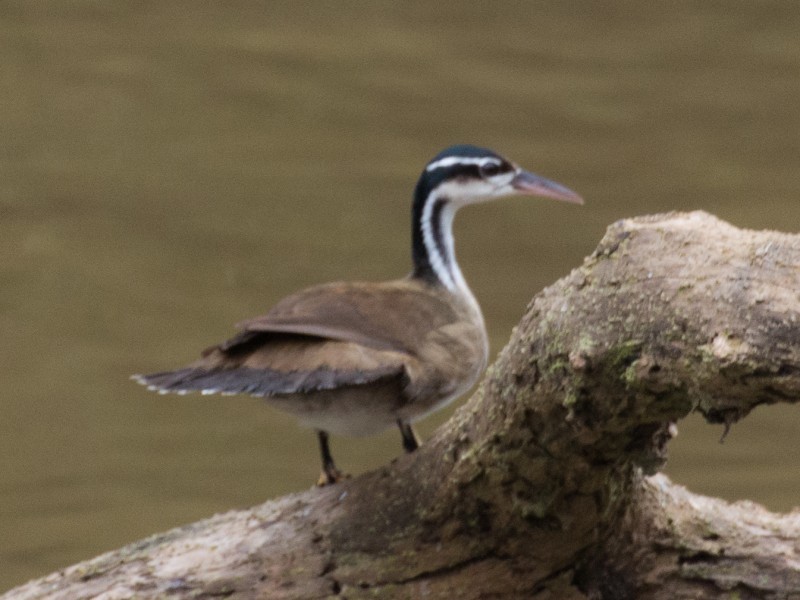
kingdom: Animalia
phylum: Chordata
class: Aves
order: Gruiformes
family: Heliornithidae
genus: Heliornis
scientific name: Heliornis fulica
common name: Sungrebe
